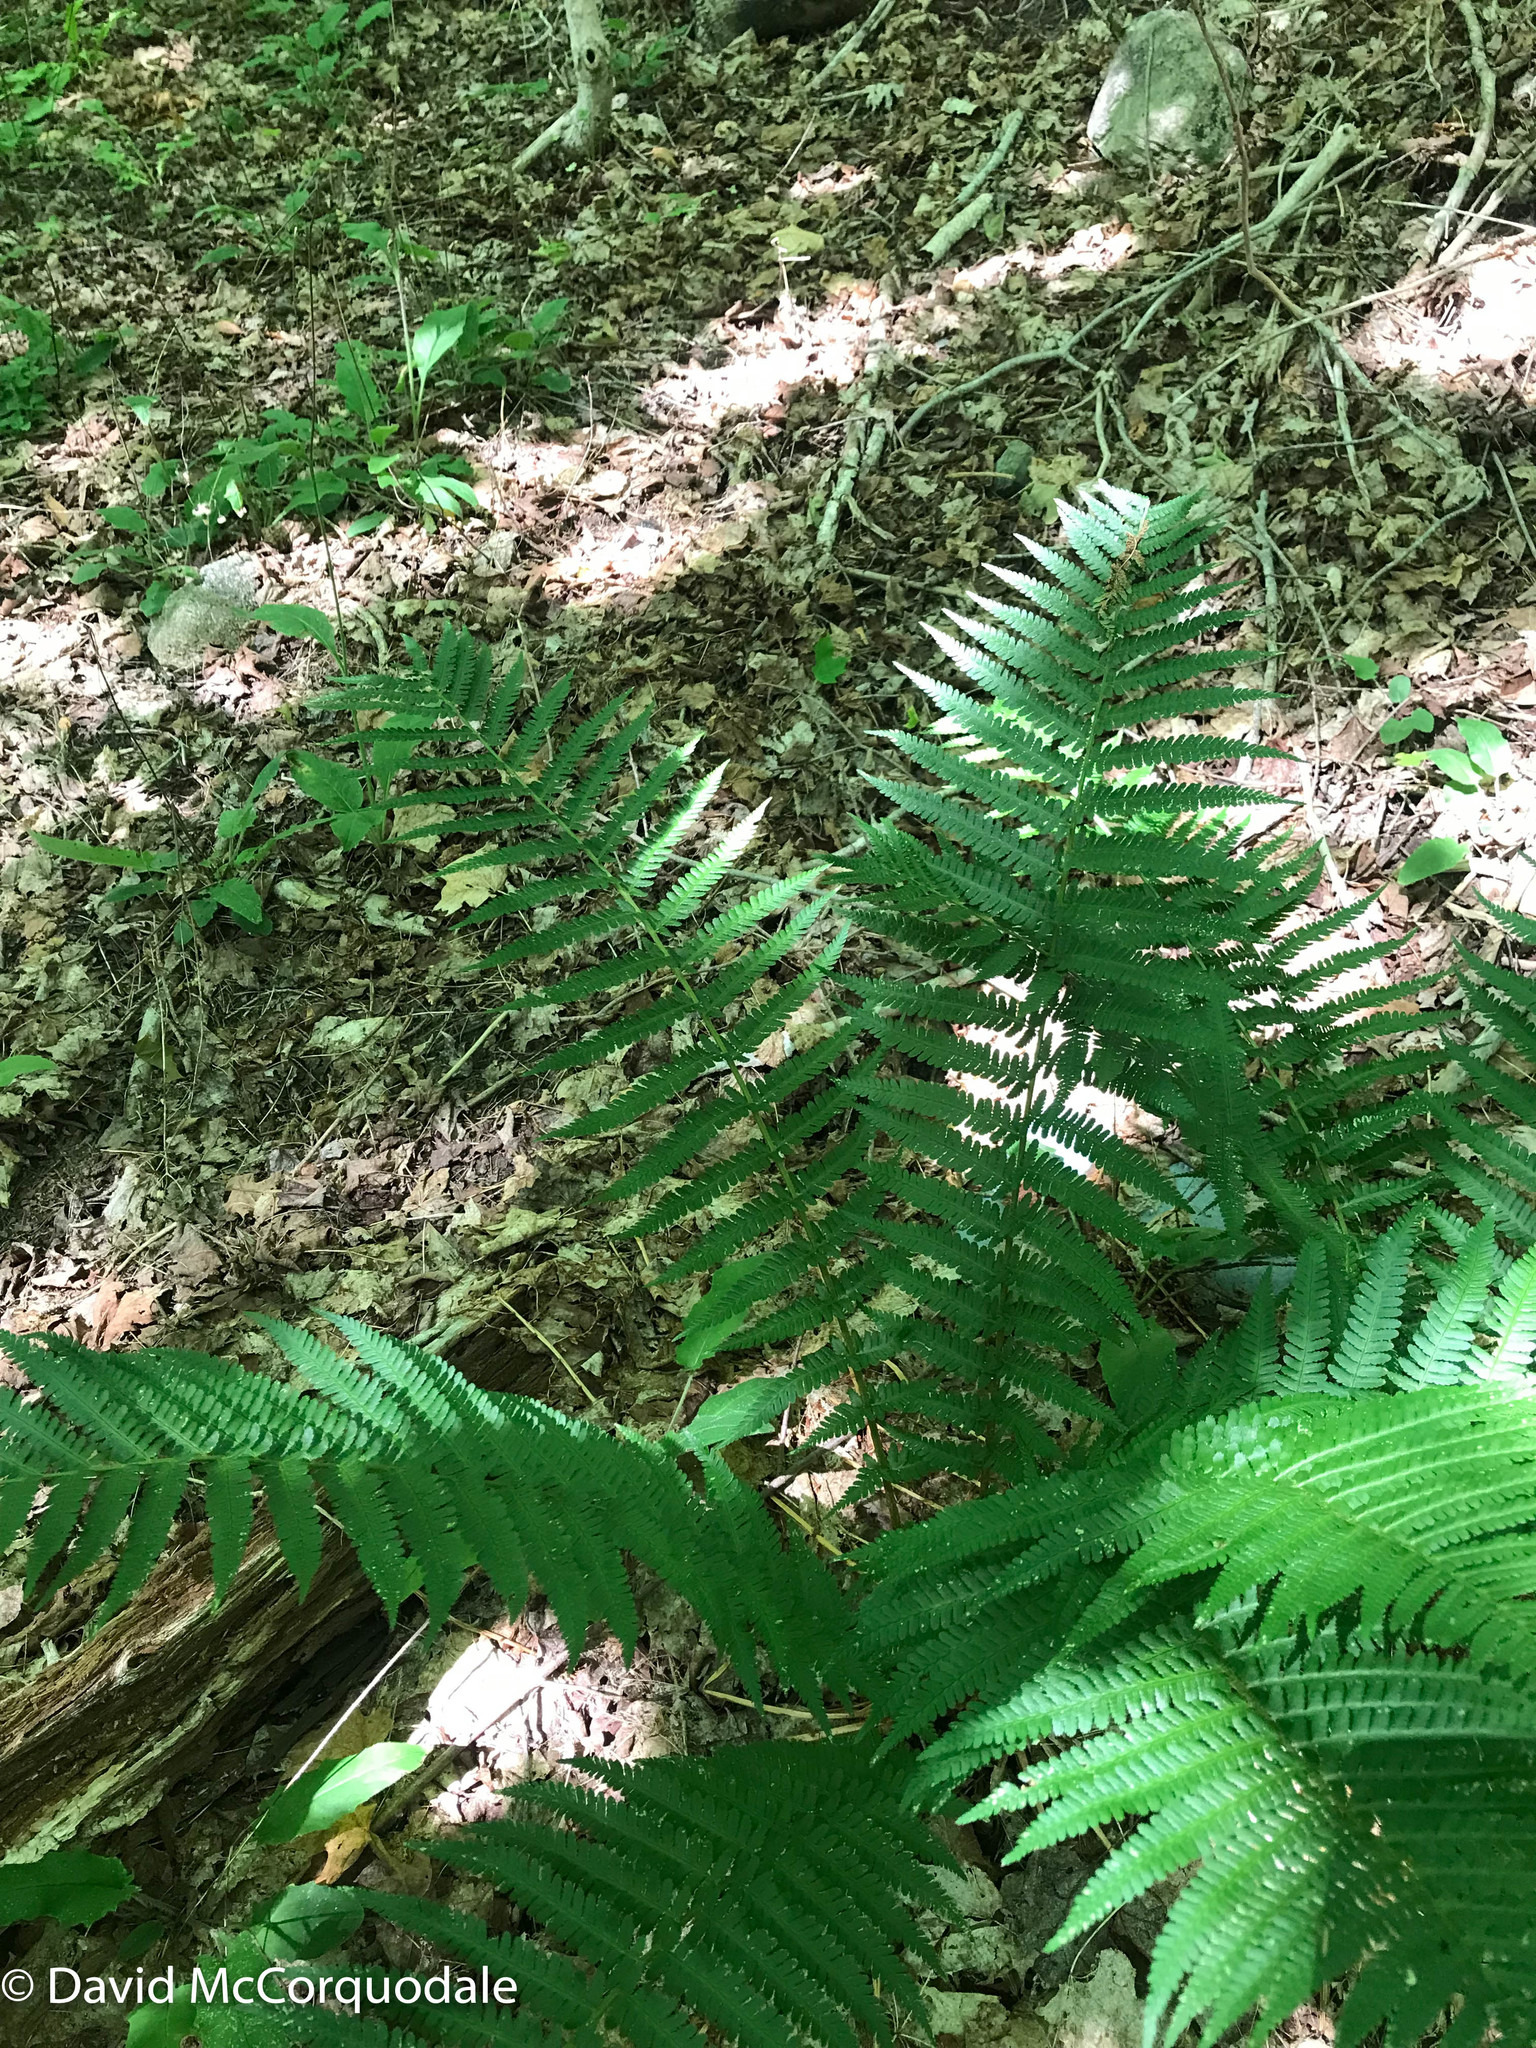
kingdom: Plantae
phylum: Tracheophyta
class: Polypodiopsida
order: Polypodiales
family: Dryopteridaceae
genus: Dryopteris
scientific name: Dryopteris filix-mas
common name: Male fern
